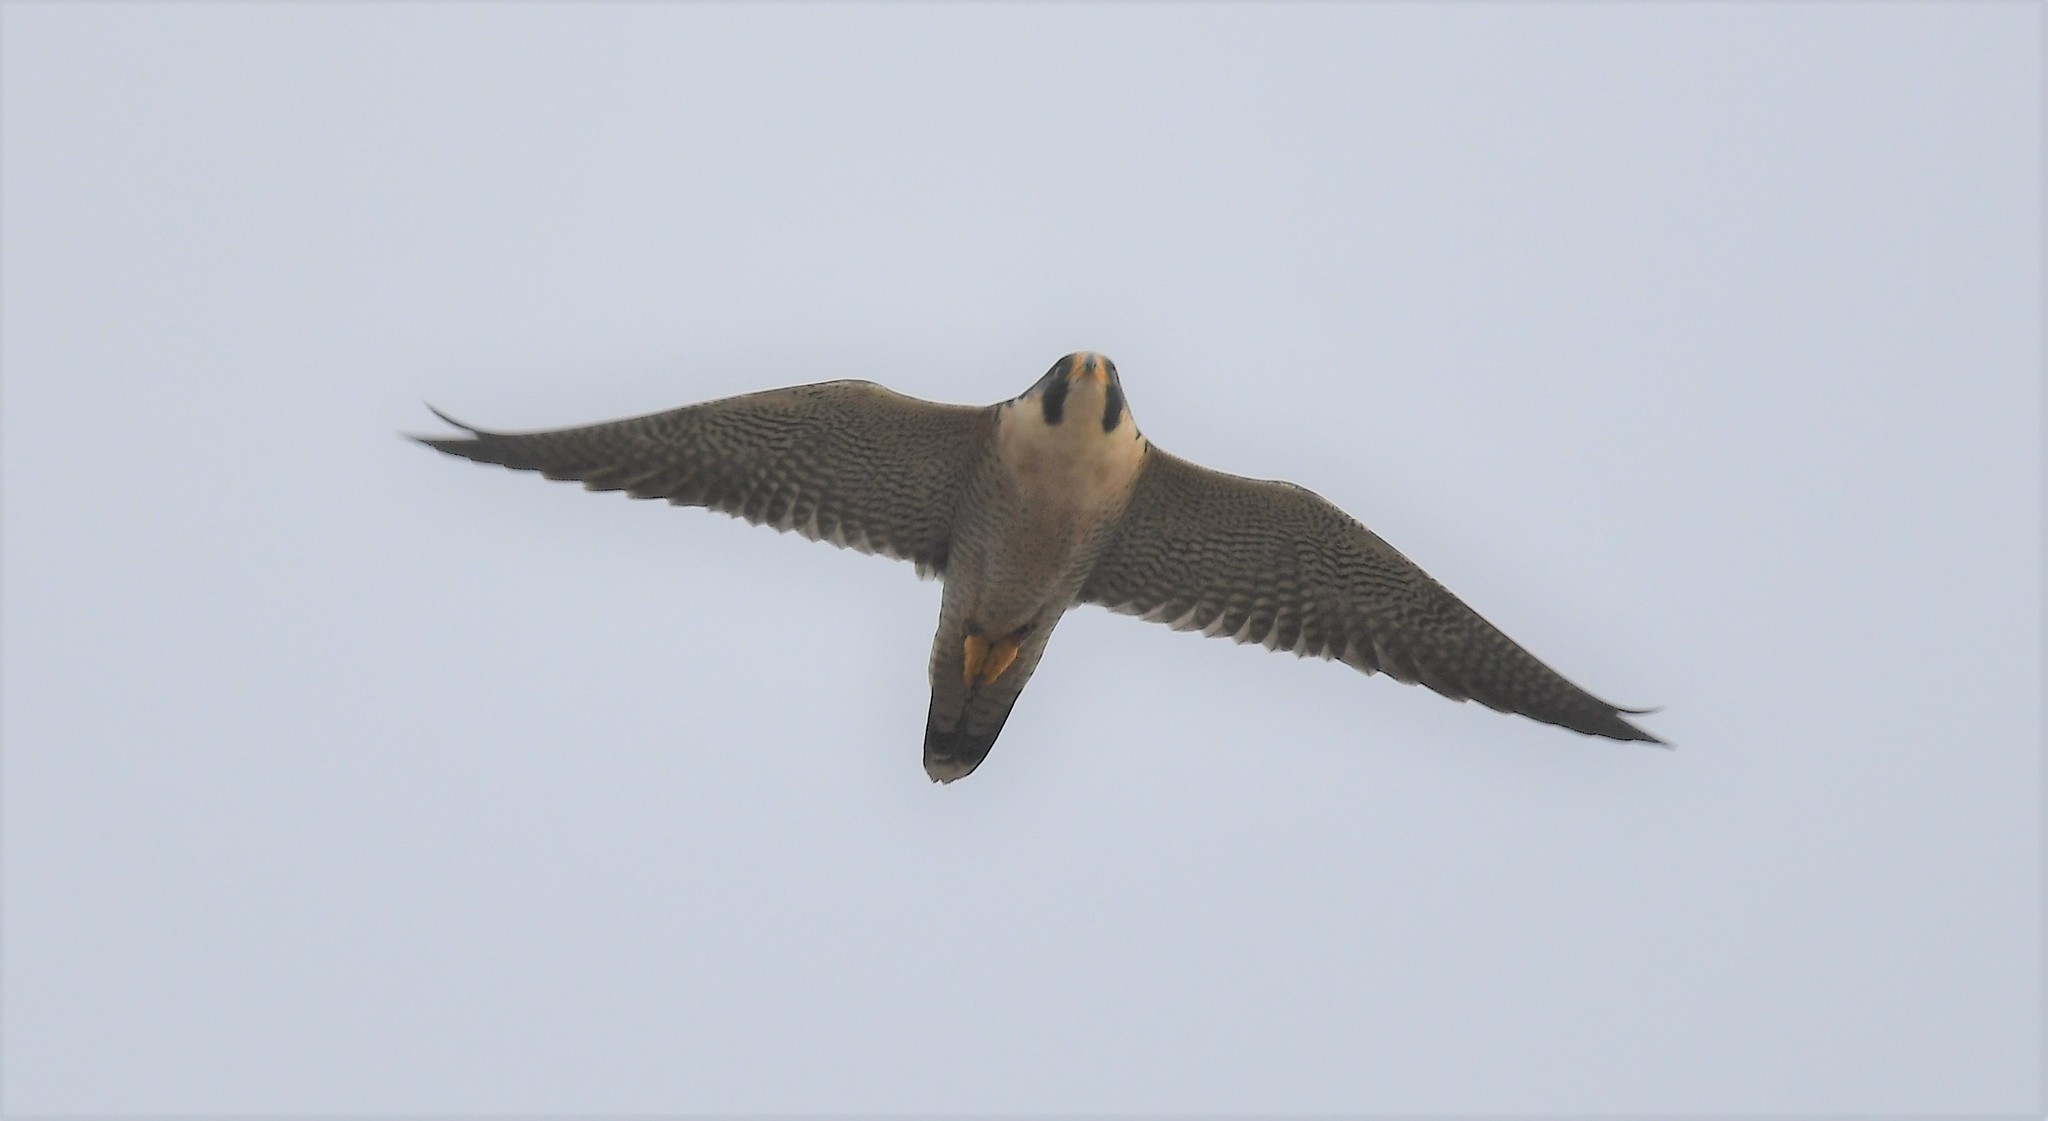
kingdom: Animalia
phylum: Chordata
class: Aves
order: Falconiformes
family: Falconidae
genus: Falco
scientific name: Falco peregrinus
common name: Peregrine falcon
